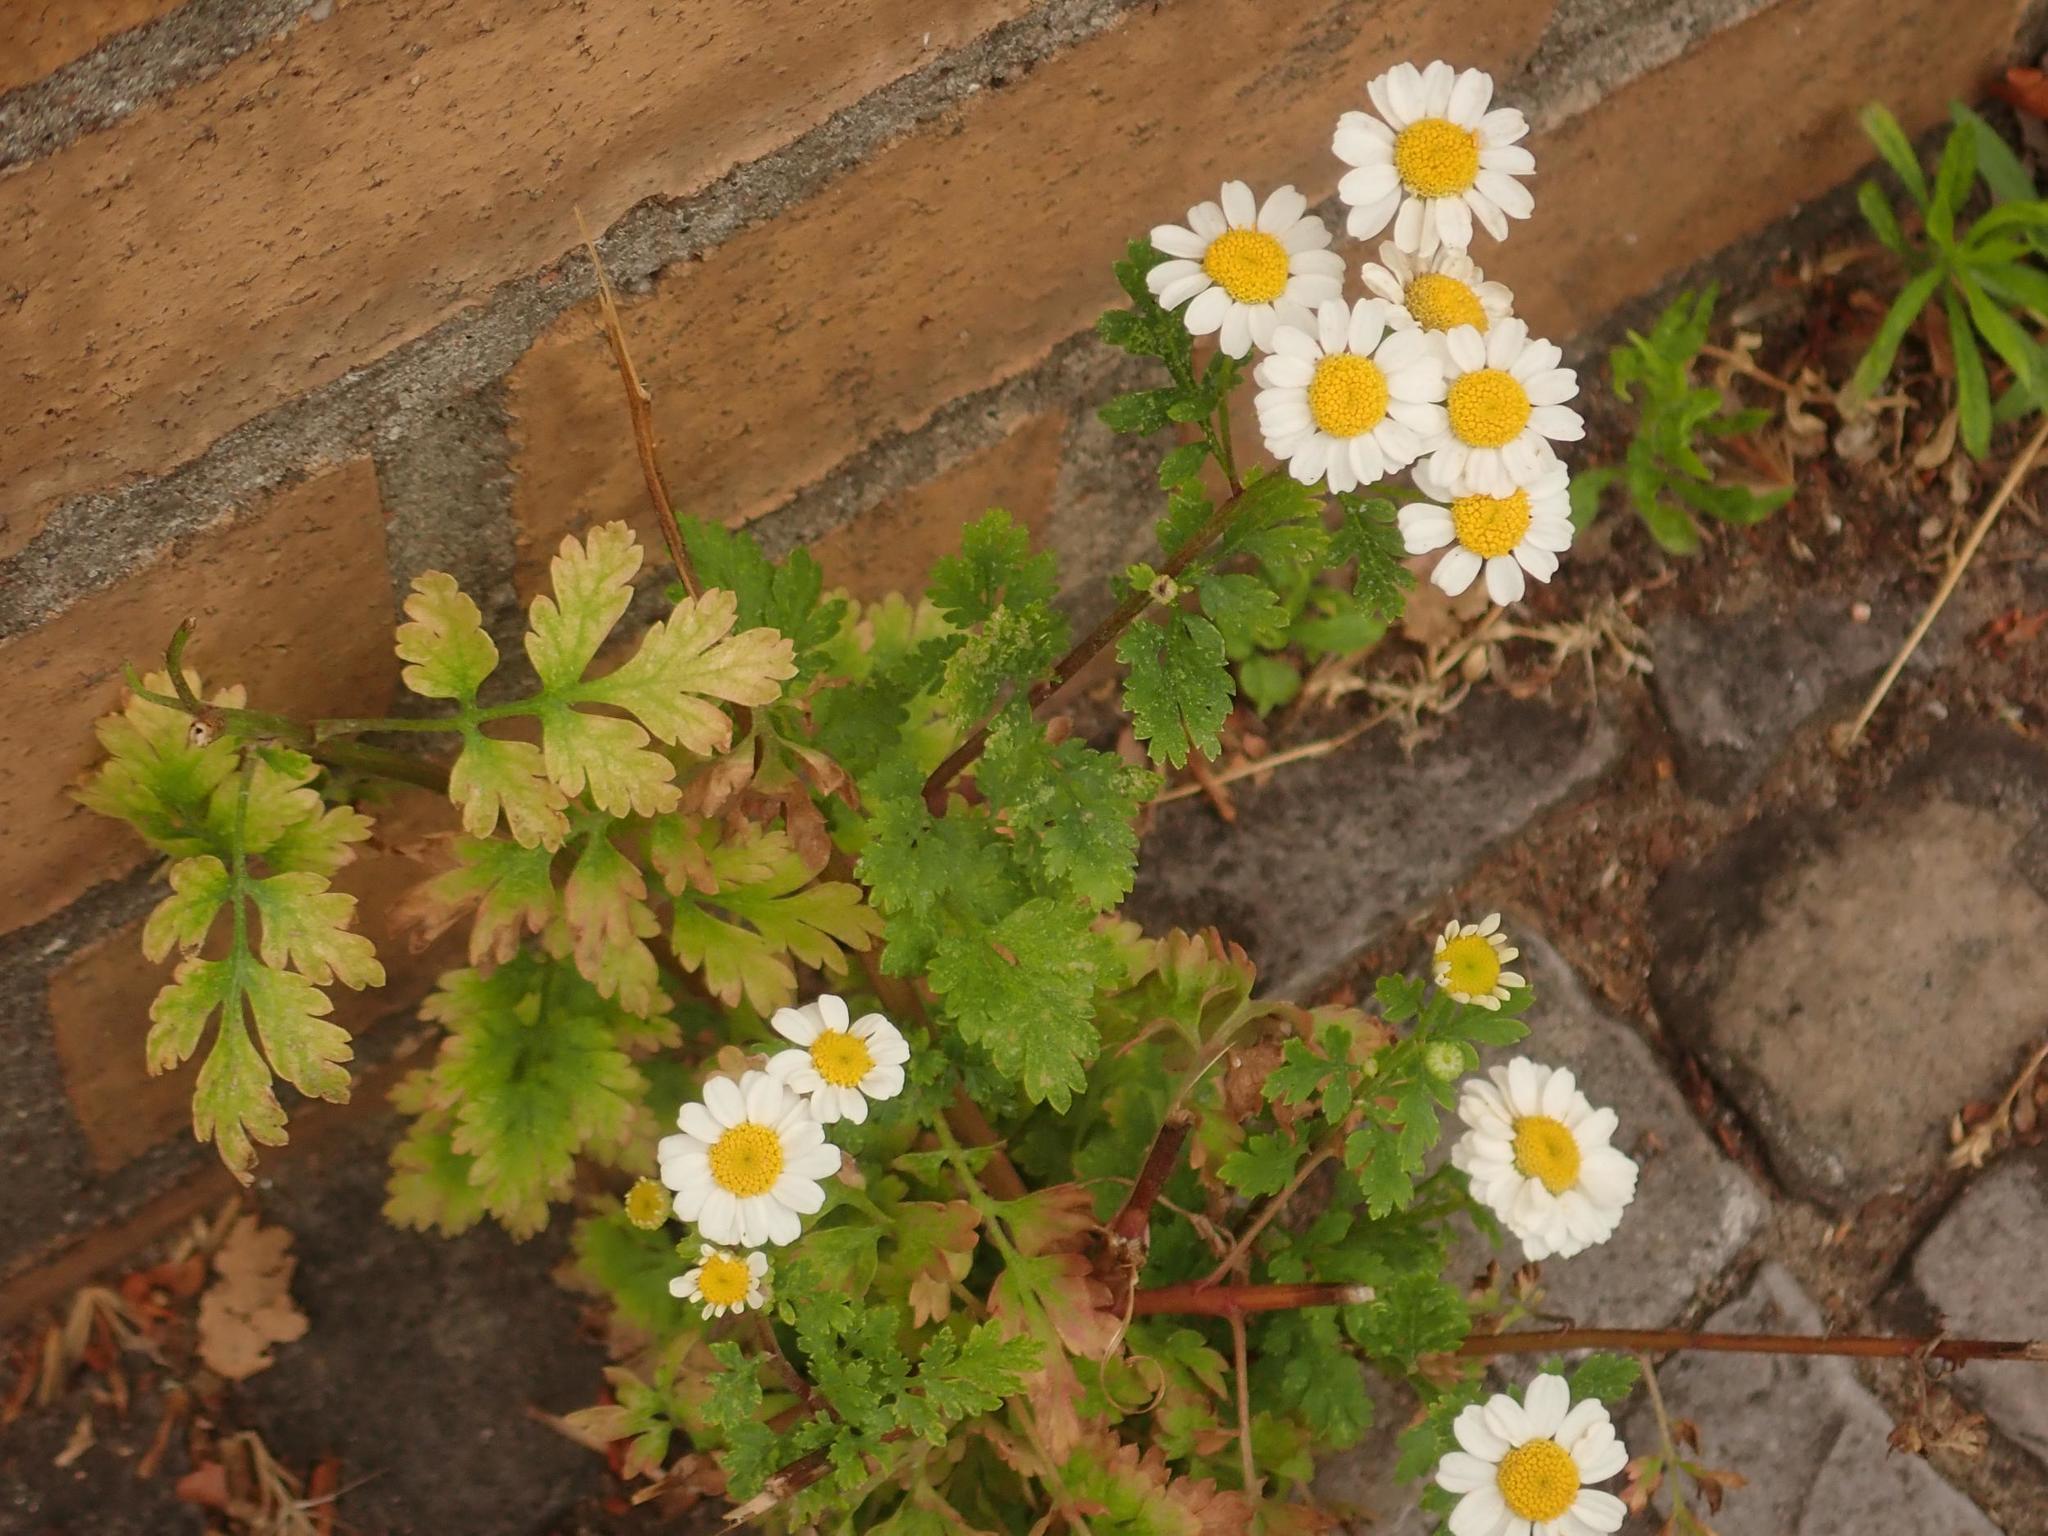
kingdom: Plantae
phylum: Tracheophyta
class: Magnoliopsida
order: Asterales
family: Asteraceae
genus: Tanacetum
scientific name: Tanacetum parthenium
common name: Feverfew
